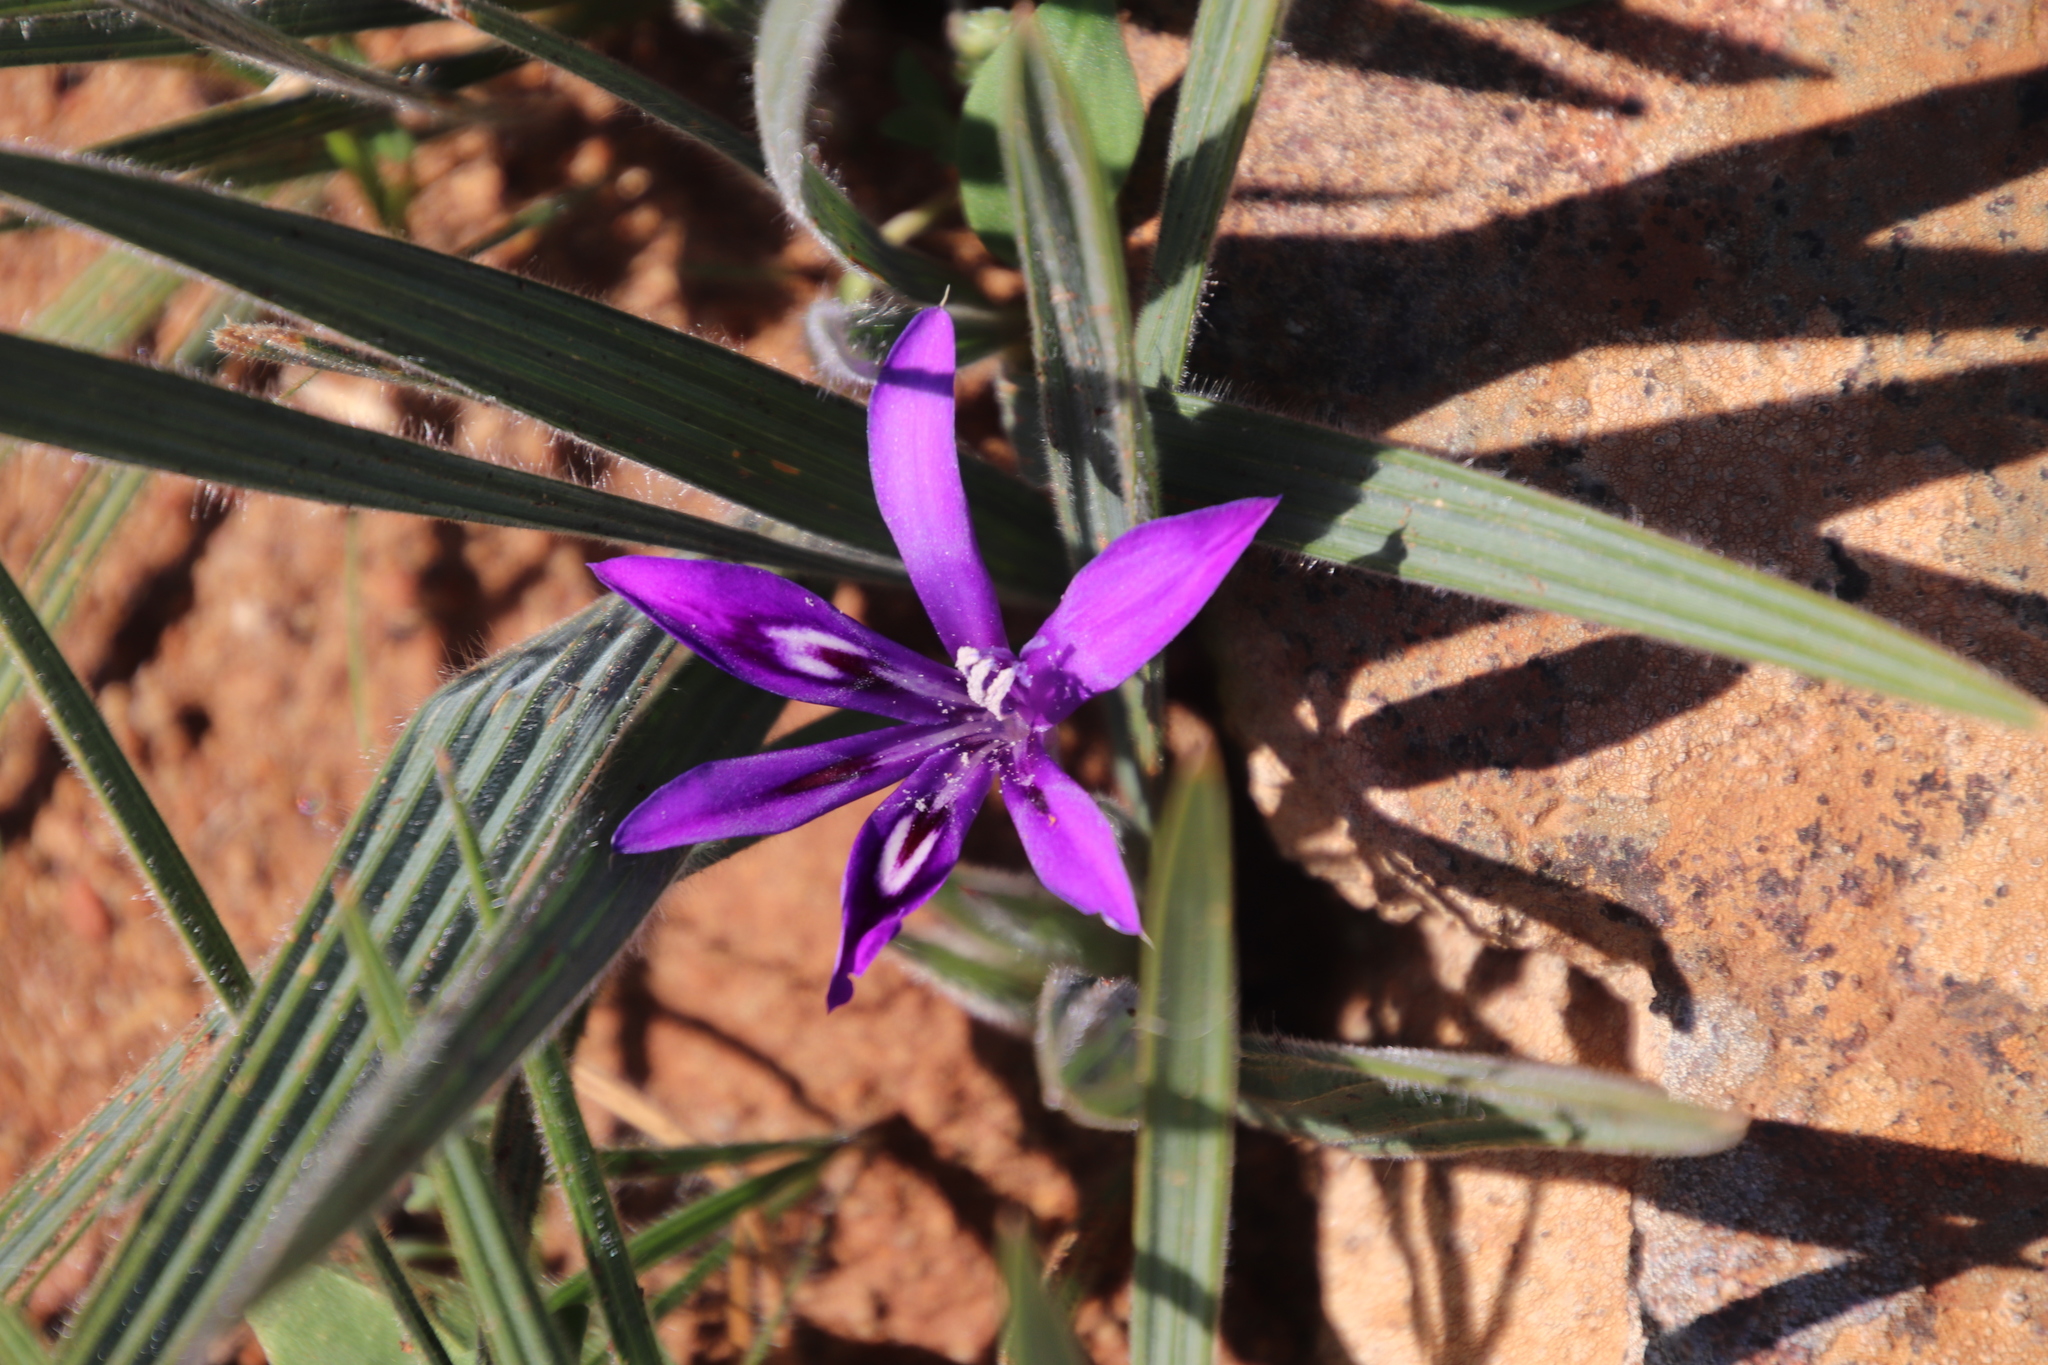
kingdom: Plantae
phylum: Tracheophyta
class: Liliopsida
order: Asparagales
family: Iridaceae
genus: Babiana
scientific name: Babiana framesii
